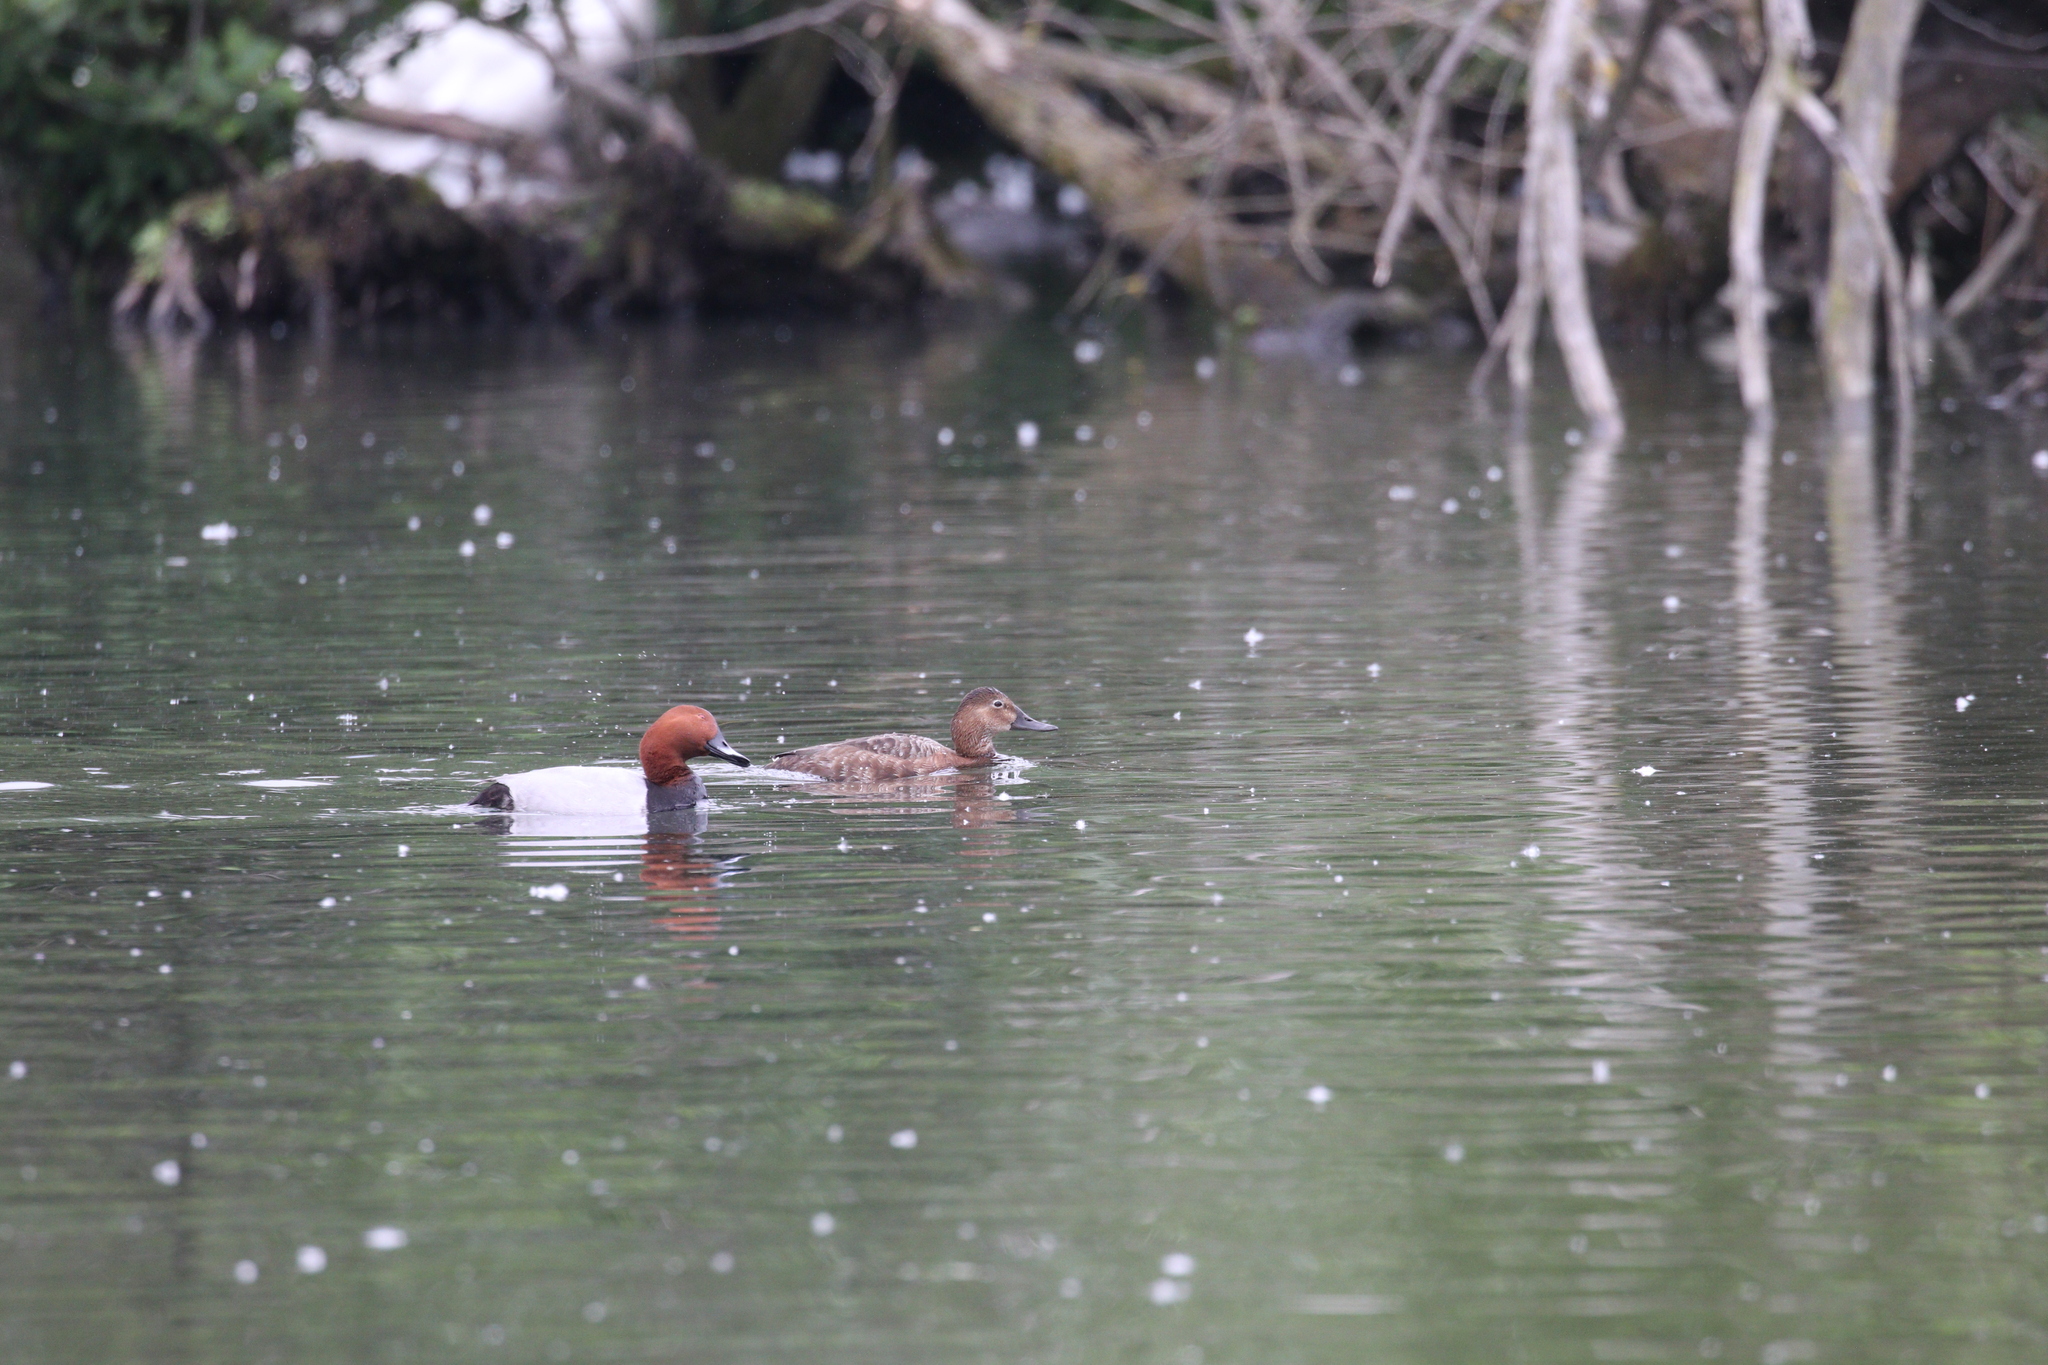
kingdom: Animalia
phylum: Chordata
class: Aves
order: Anseriformes
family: Anatidae
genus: Aythya
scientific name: Aythya ferina
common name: Common pochard
